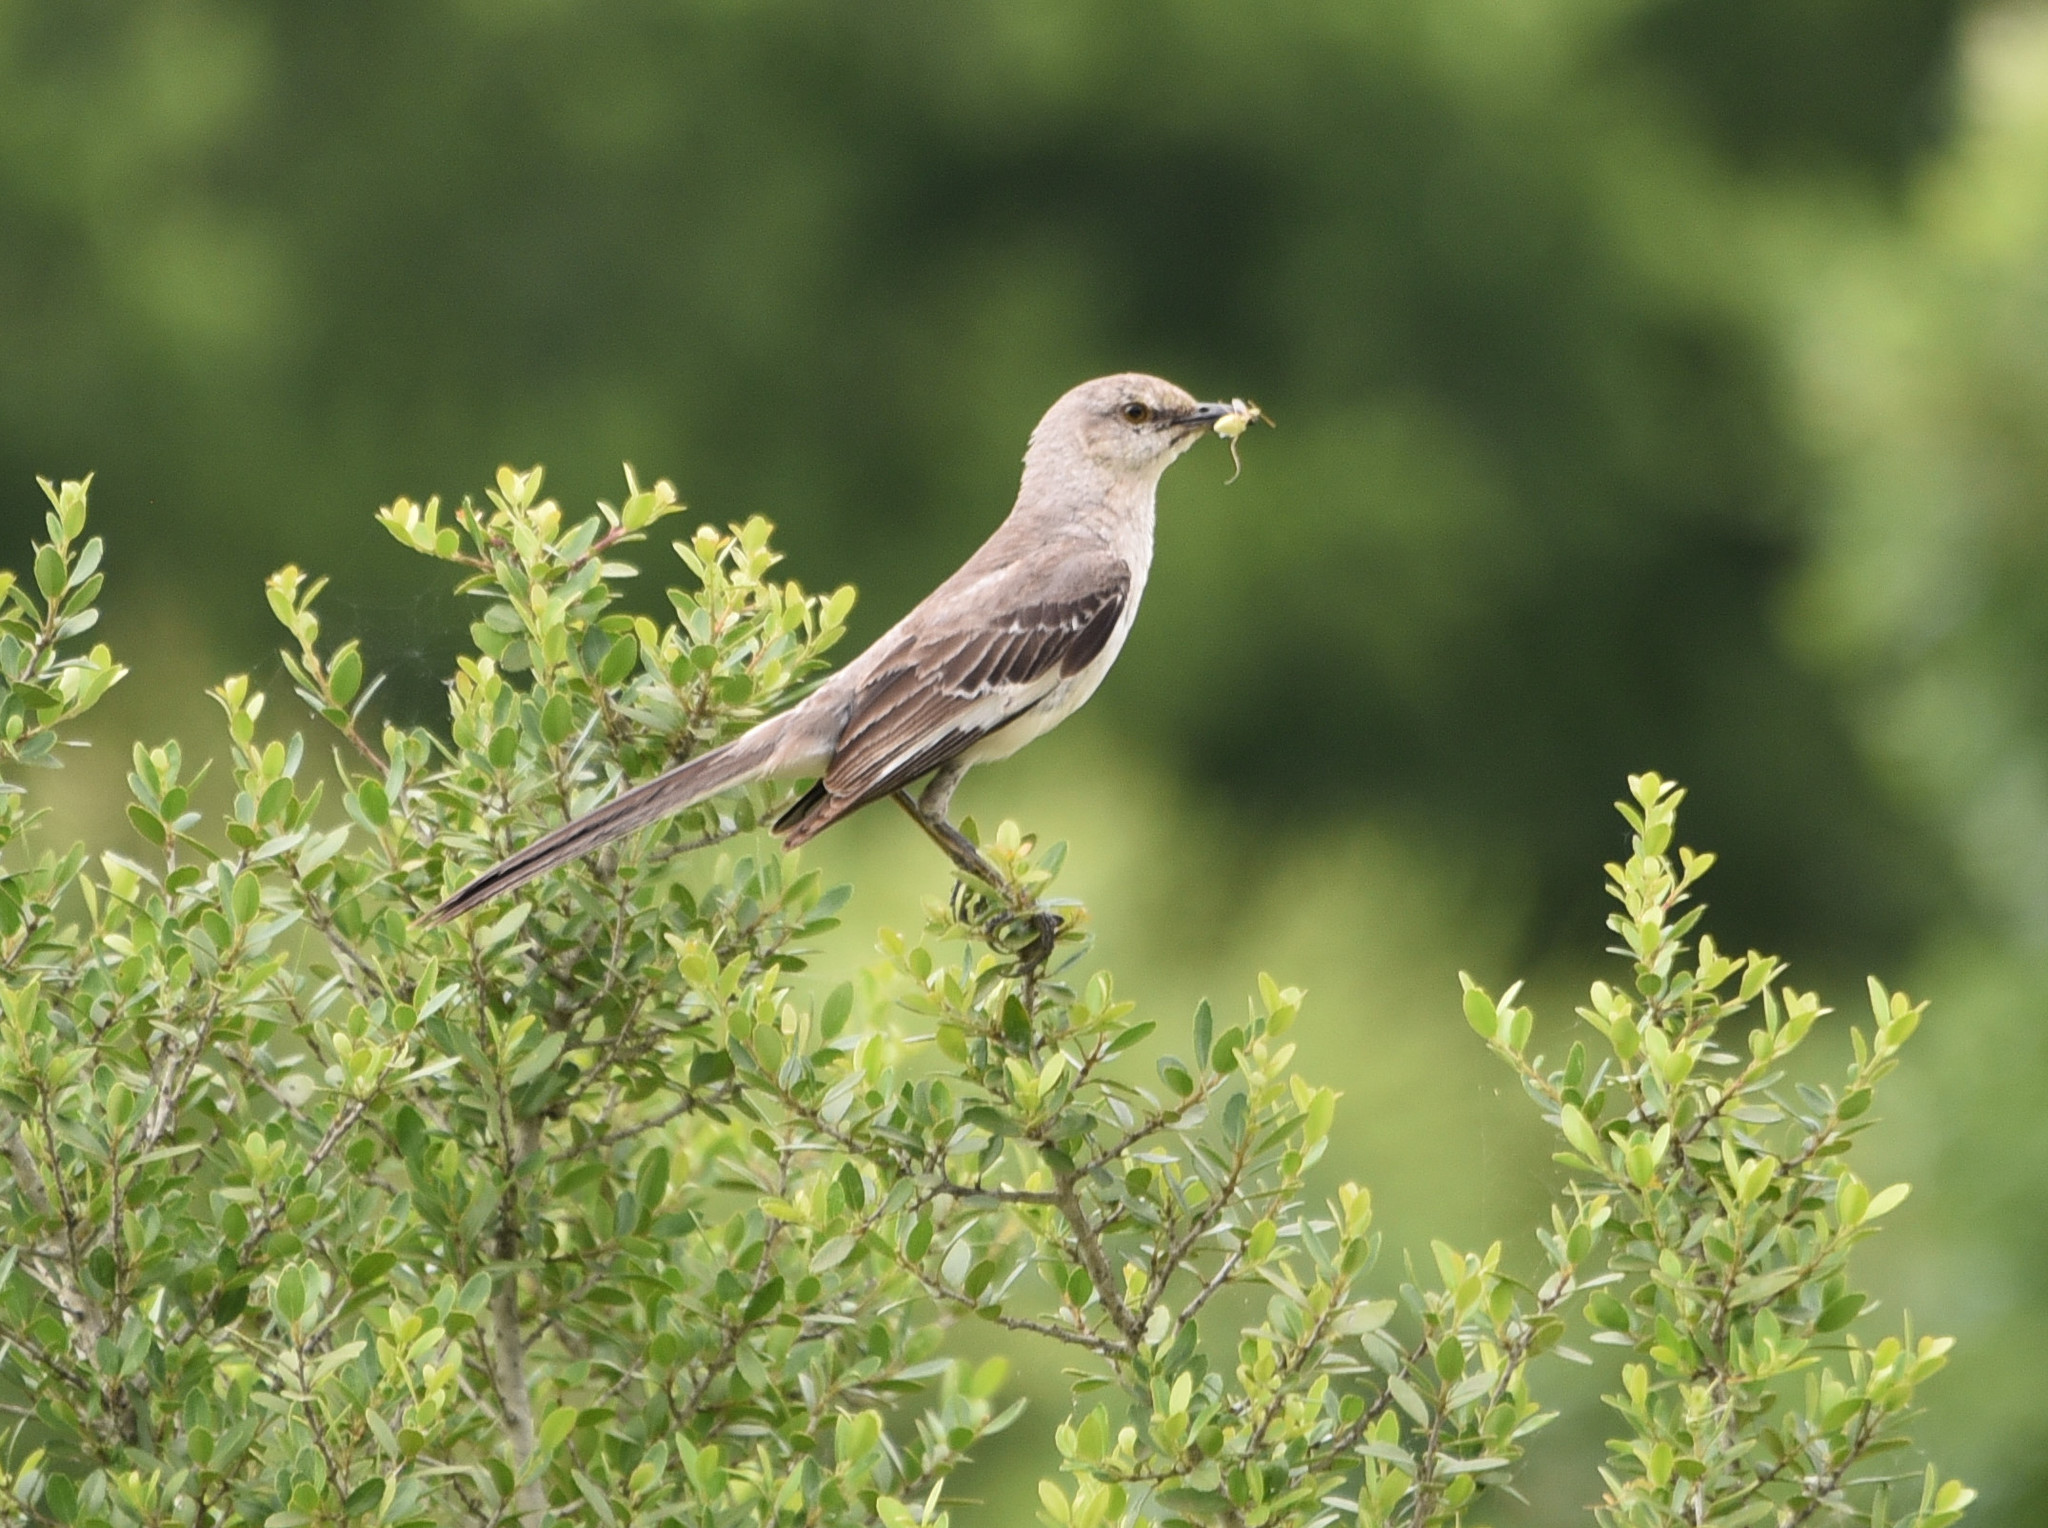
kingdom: Animalia
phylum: Chordata
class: Aves
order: Passeriformes
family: Mimidae
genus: Mimus
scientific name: Mimus polyglottos
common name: Northern mockingbird
